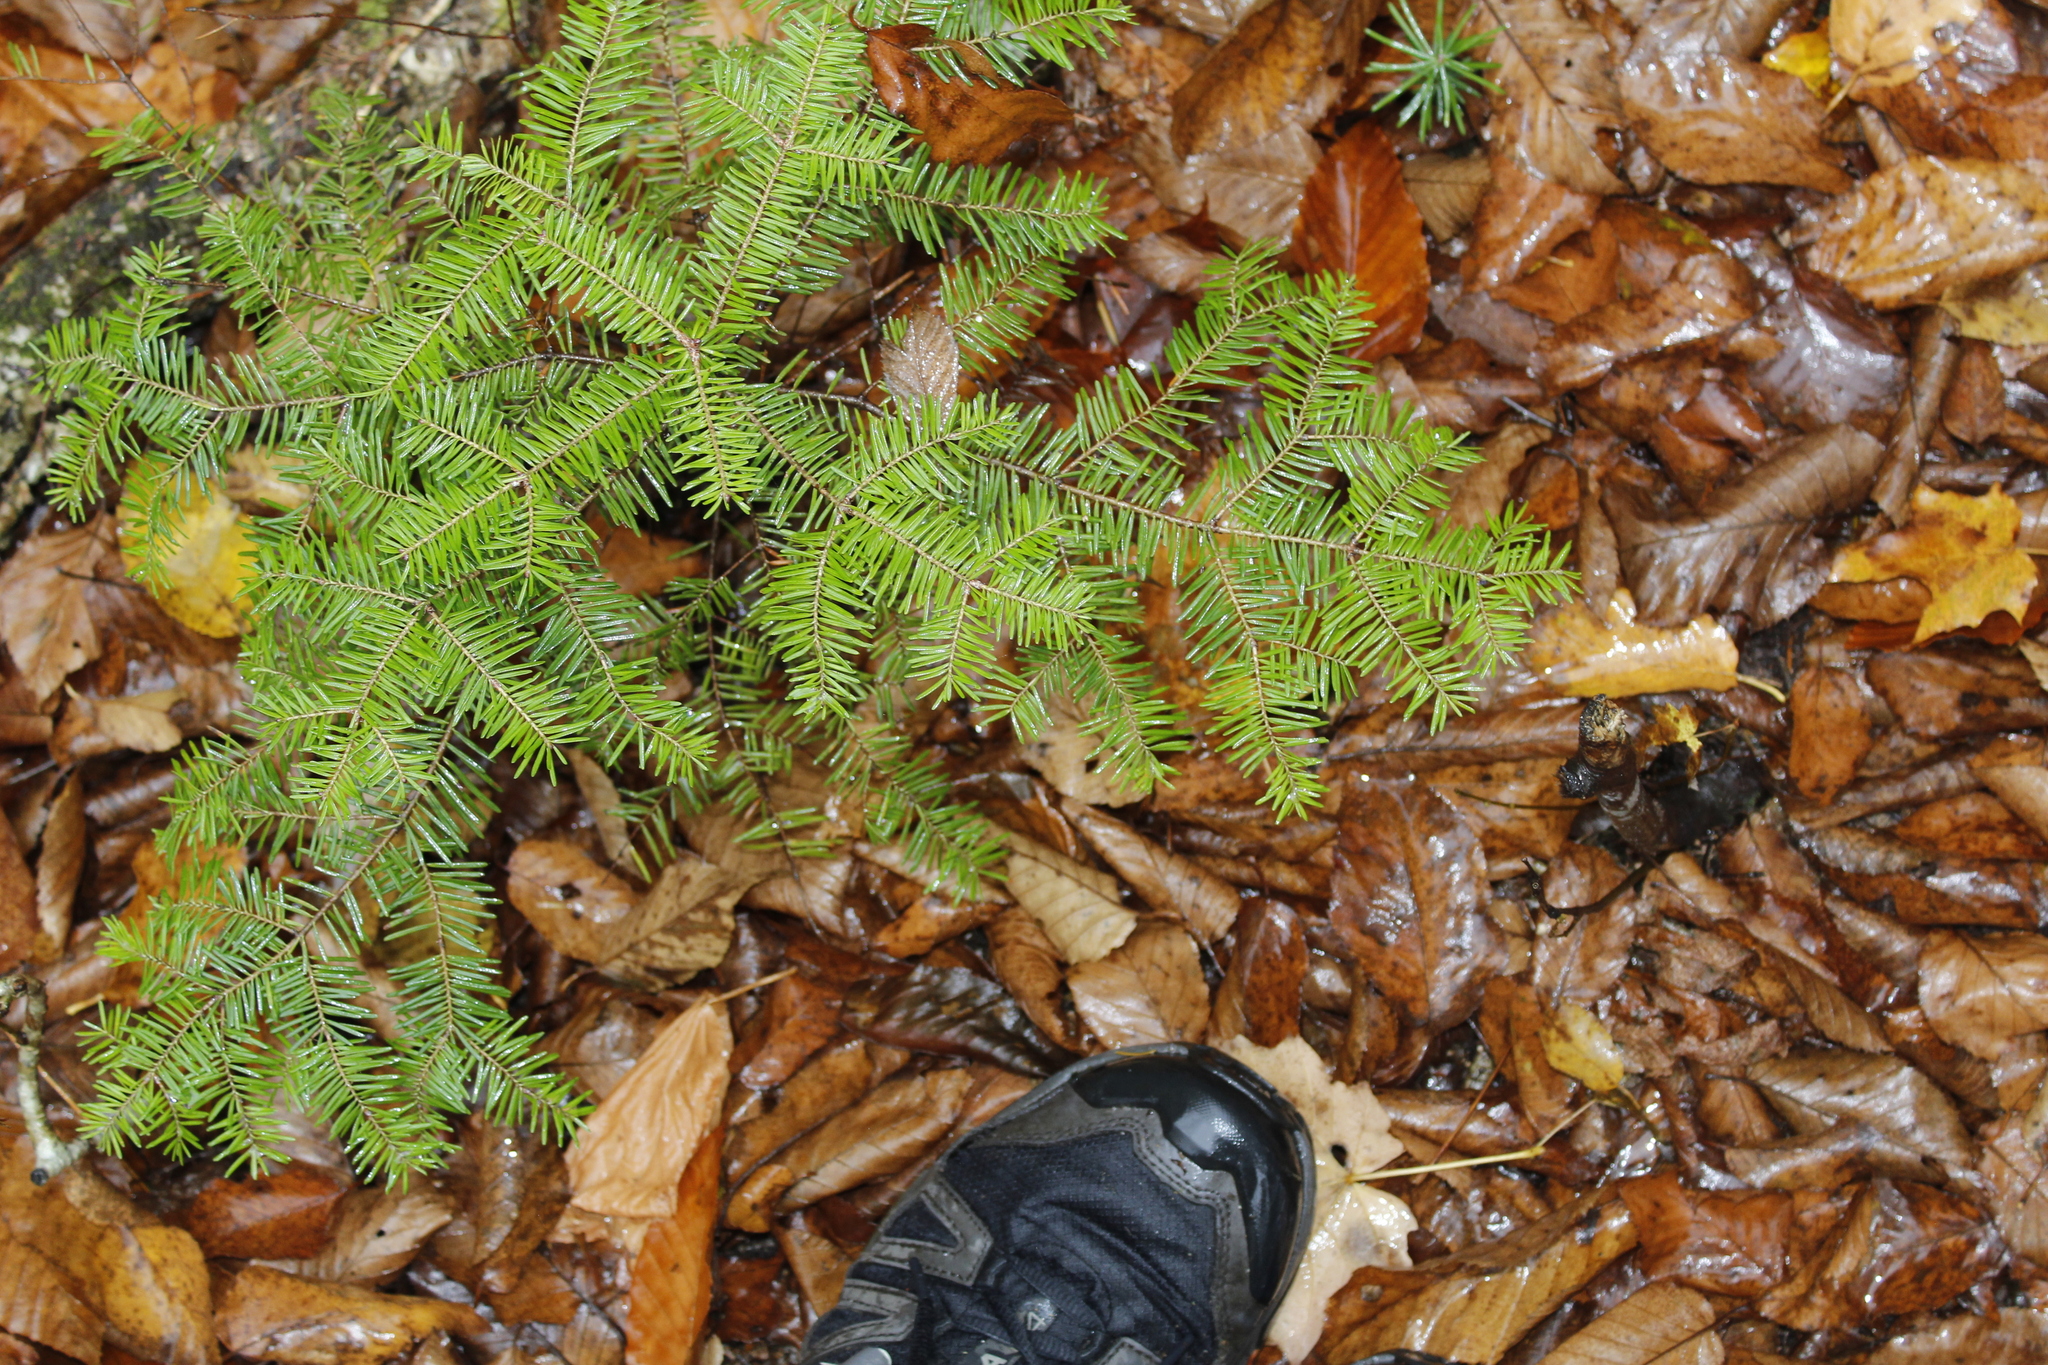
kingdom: Plantae
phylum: Tracheophyta
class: Pinopsida
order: Pinales
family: Pinaceae
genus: Abies
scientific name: Abies balsamea
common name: Balsam fir
